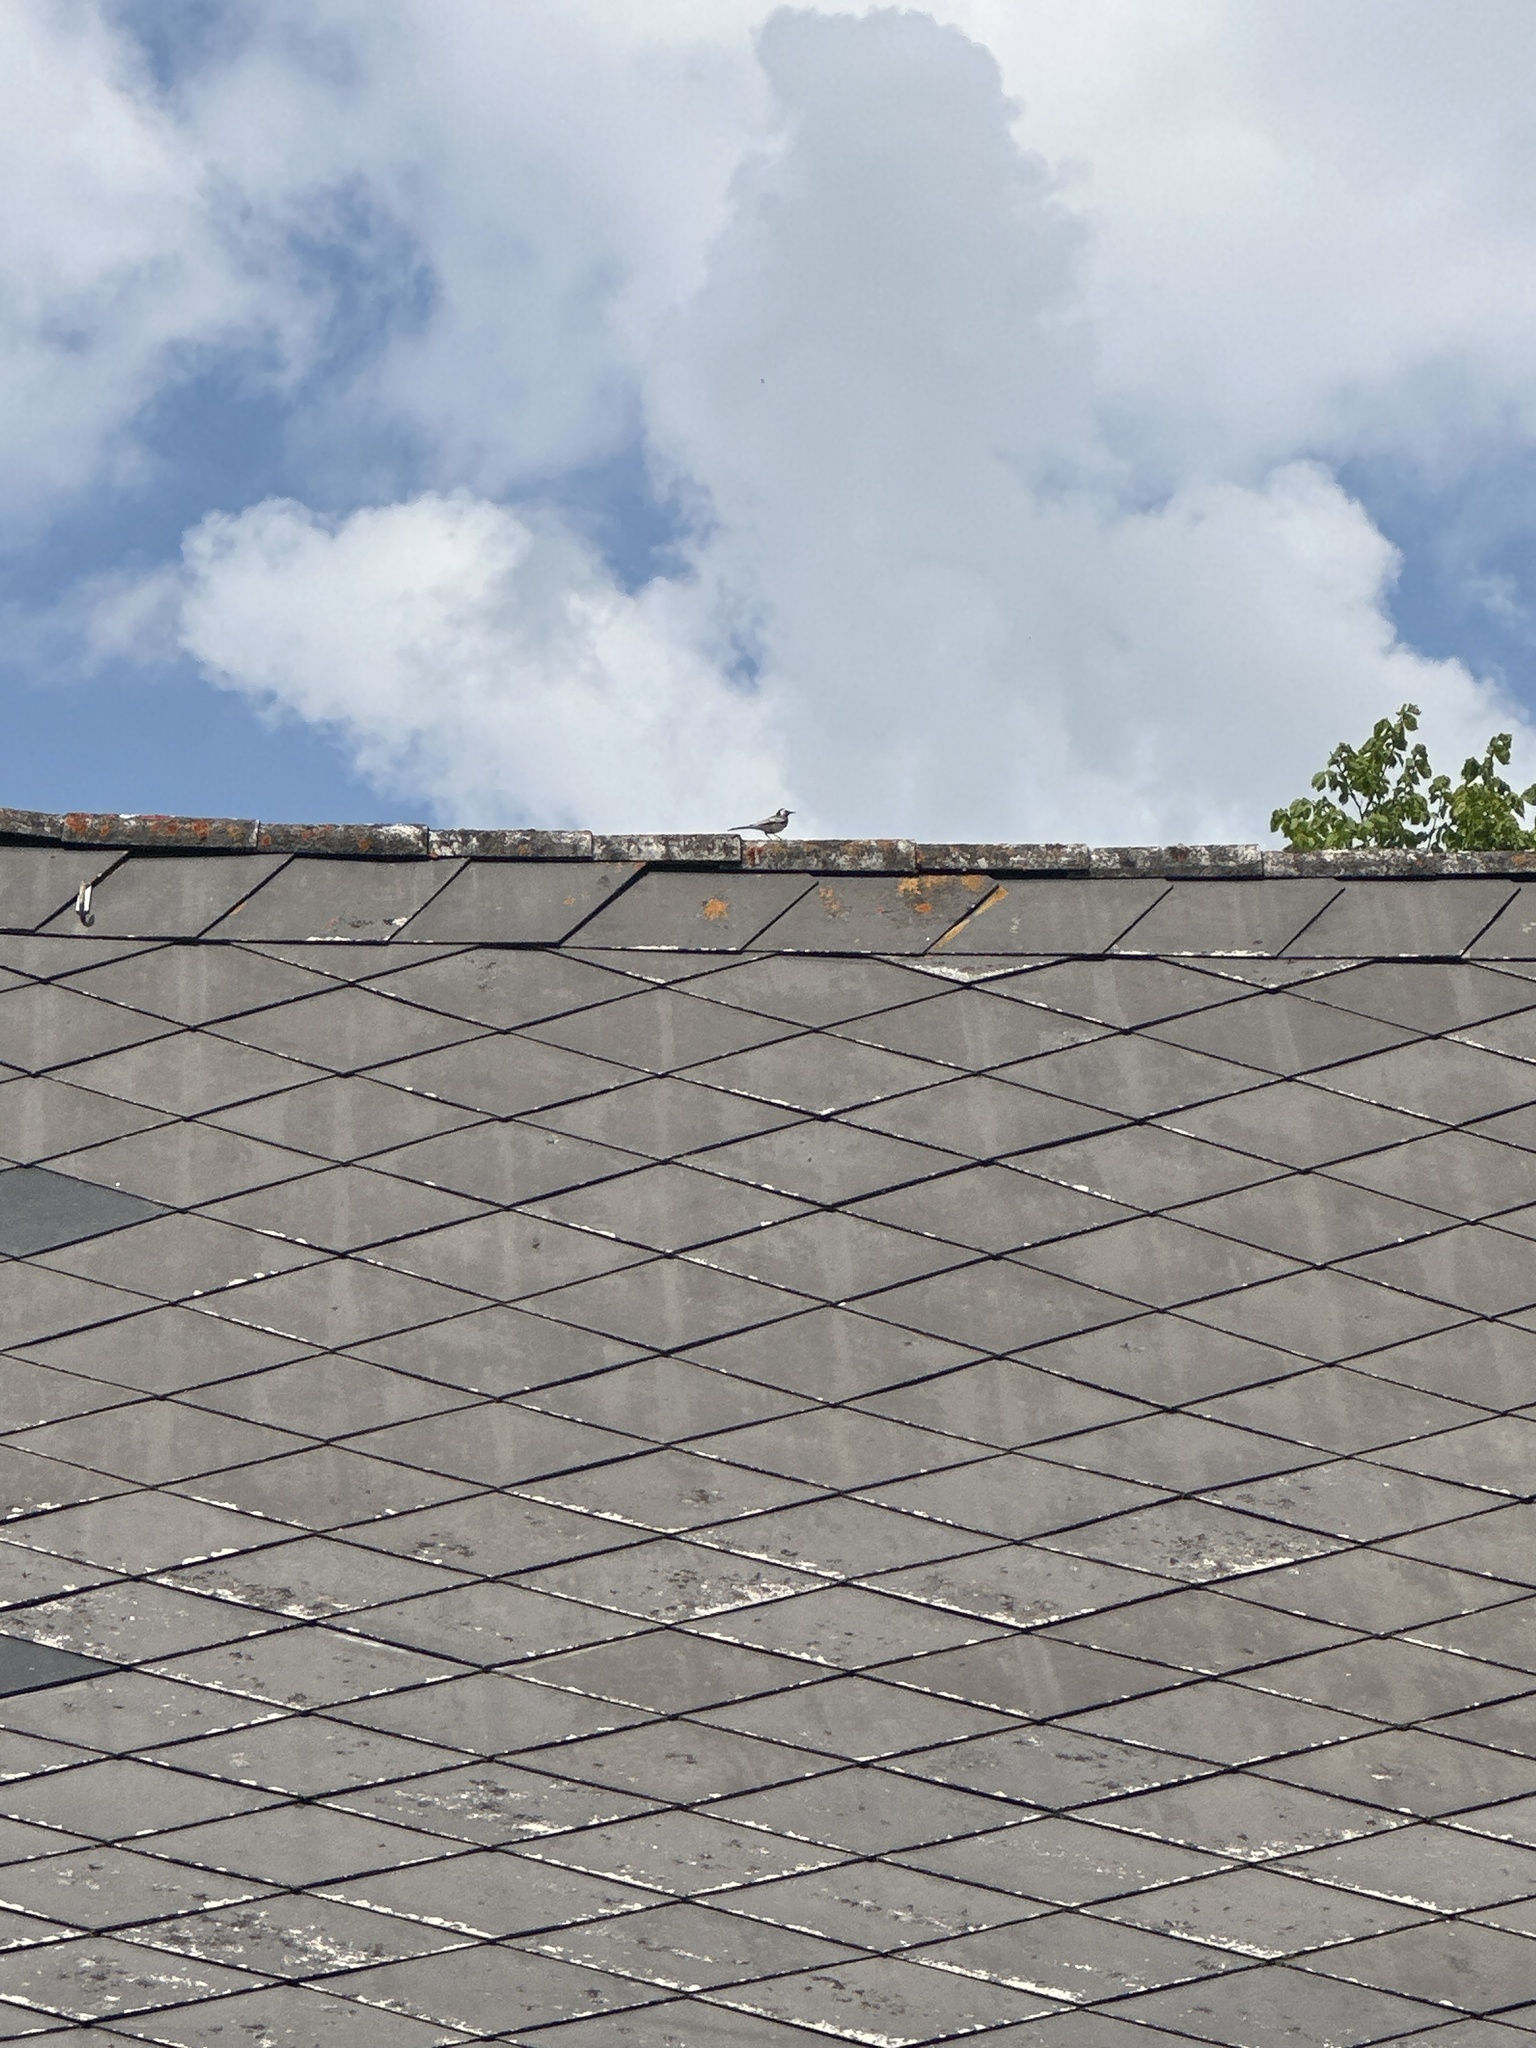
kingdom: Animalia
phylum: Chordata
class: Aves
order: Passeriformes
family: Motacillidae
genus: Motacilla
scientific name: Motacilla alba
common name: White wagtail
